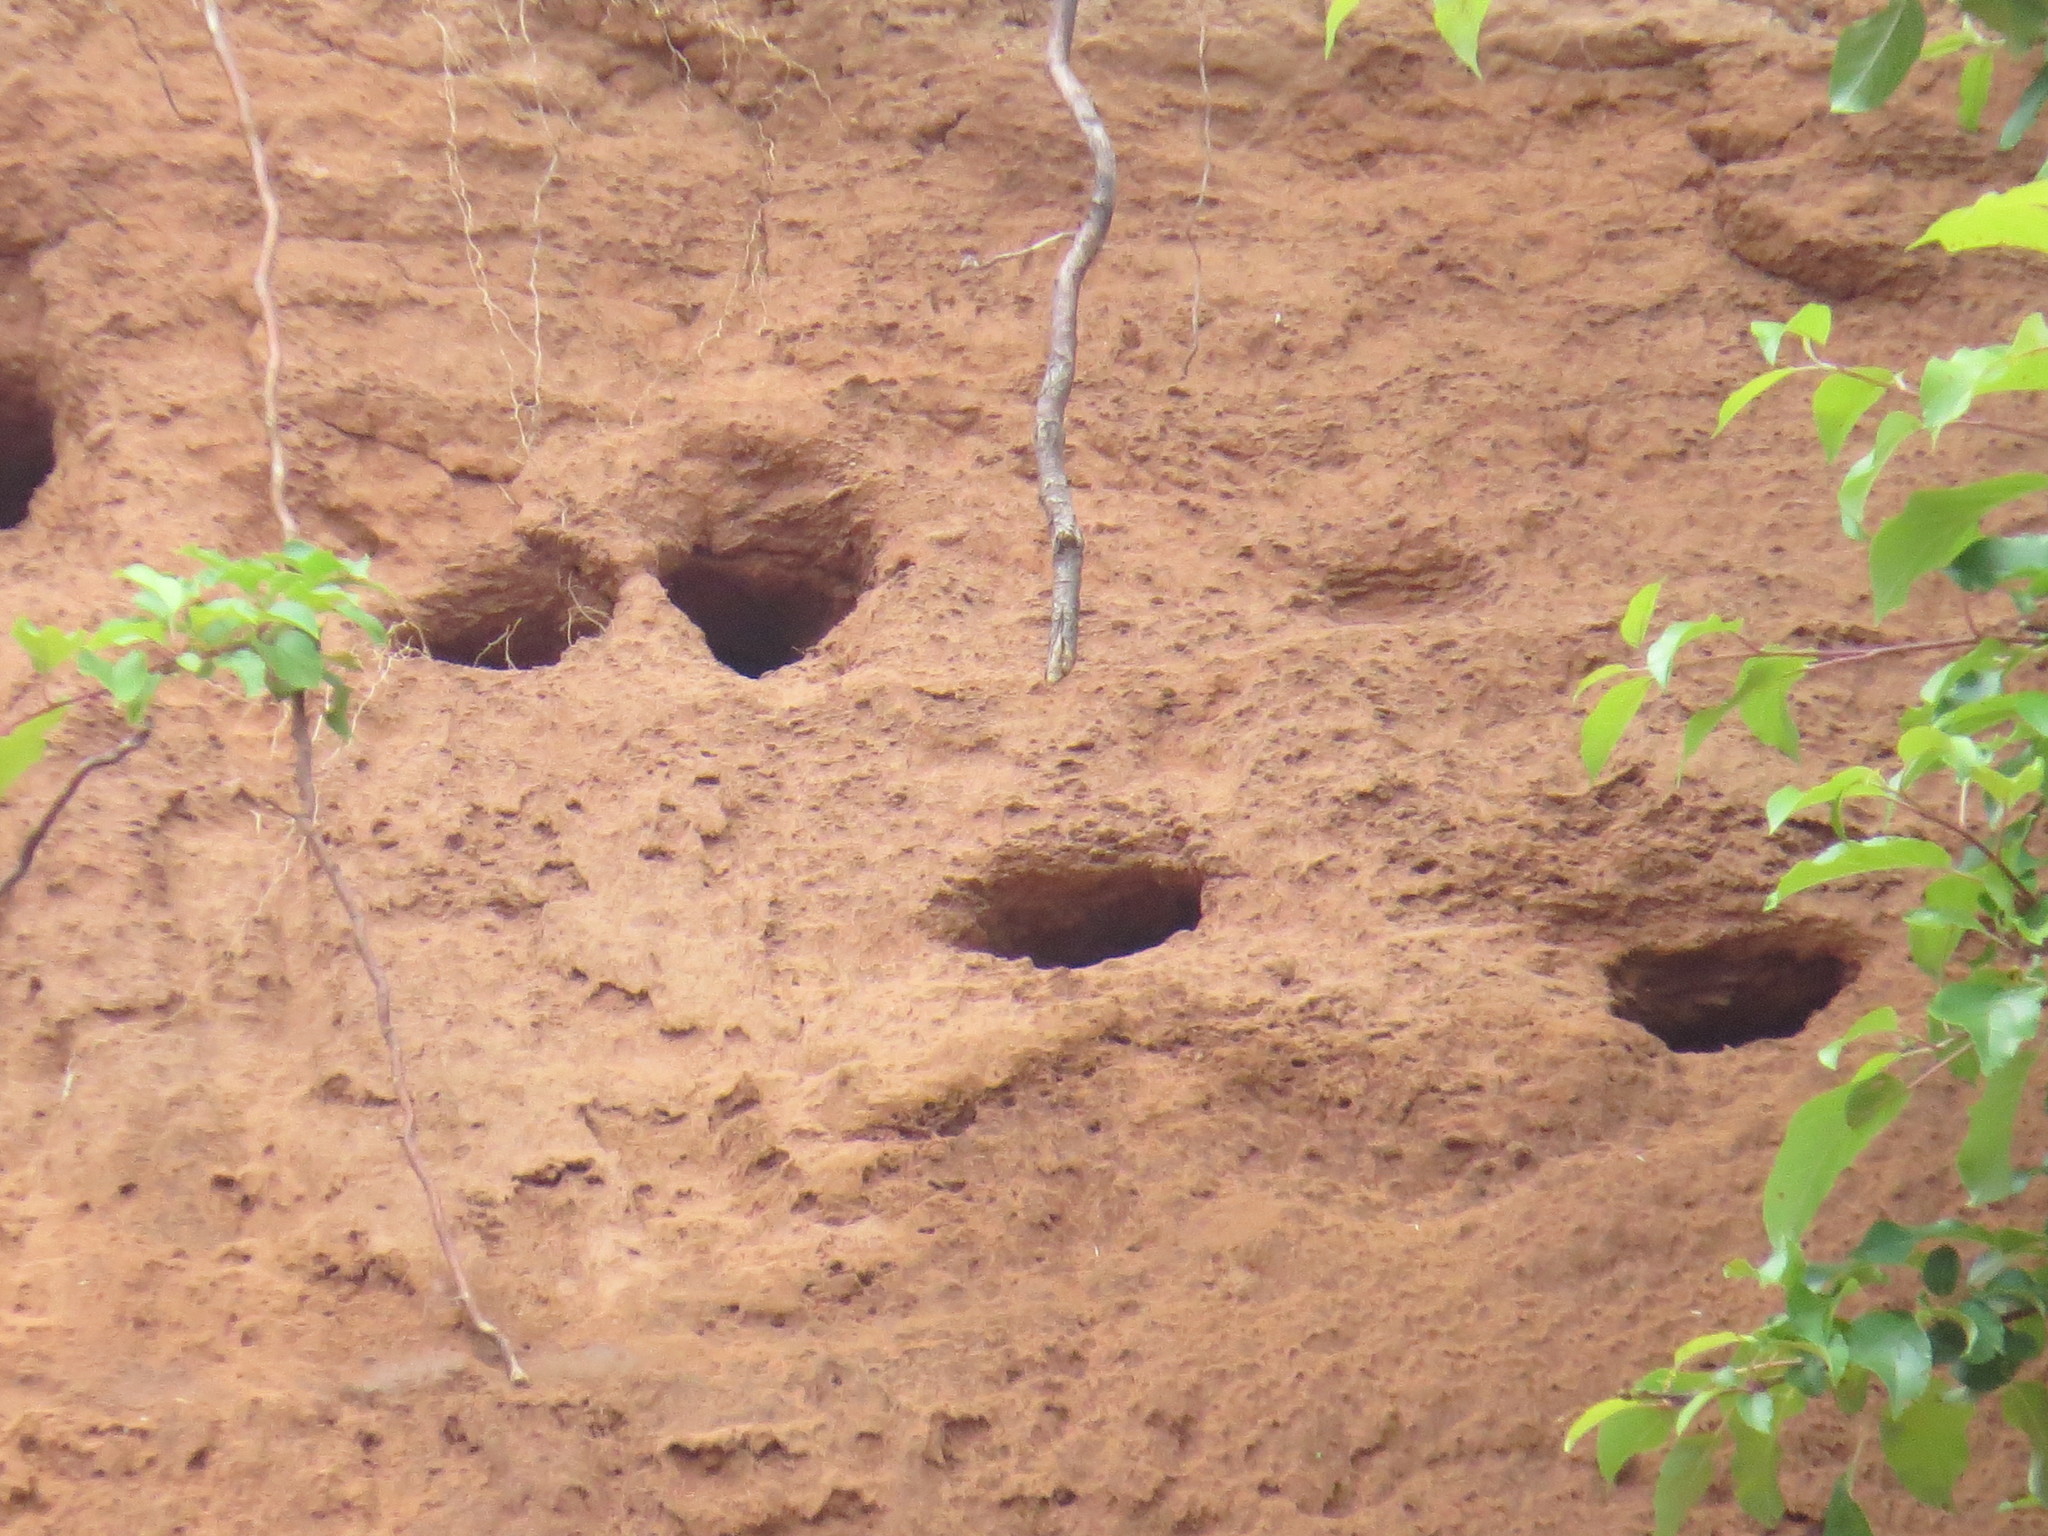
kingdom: Animalia
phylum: Chordata
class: Aves
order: Passeriformes
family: Hirundinidae
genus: Riparia
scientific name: Riparia riparia
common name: Sand martin
